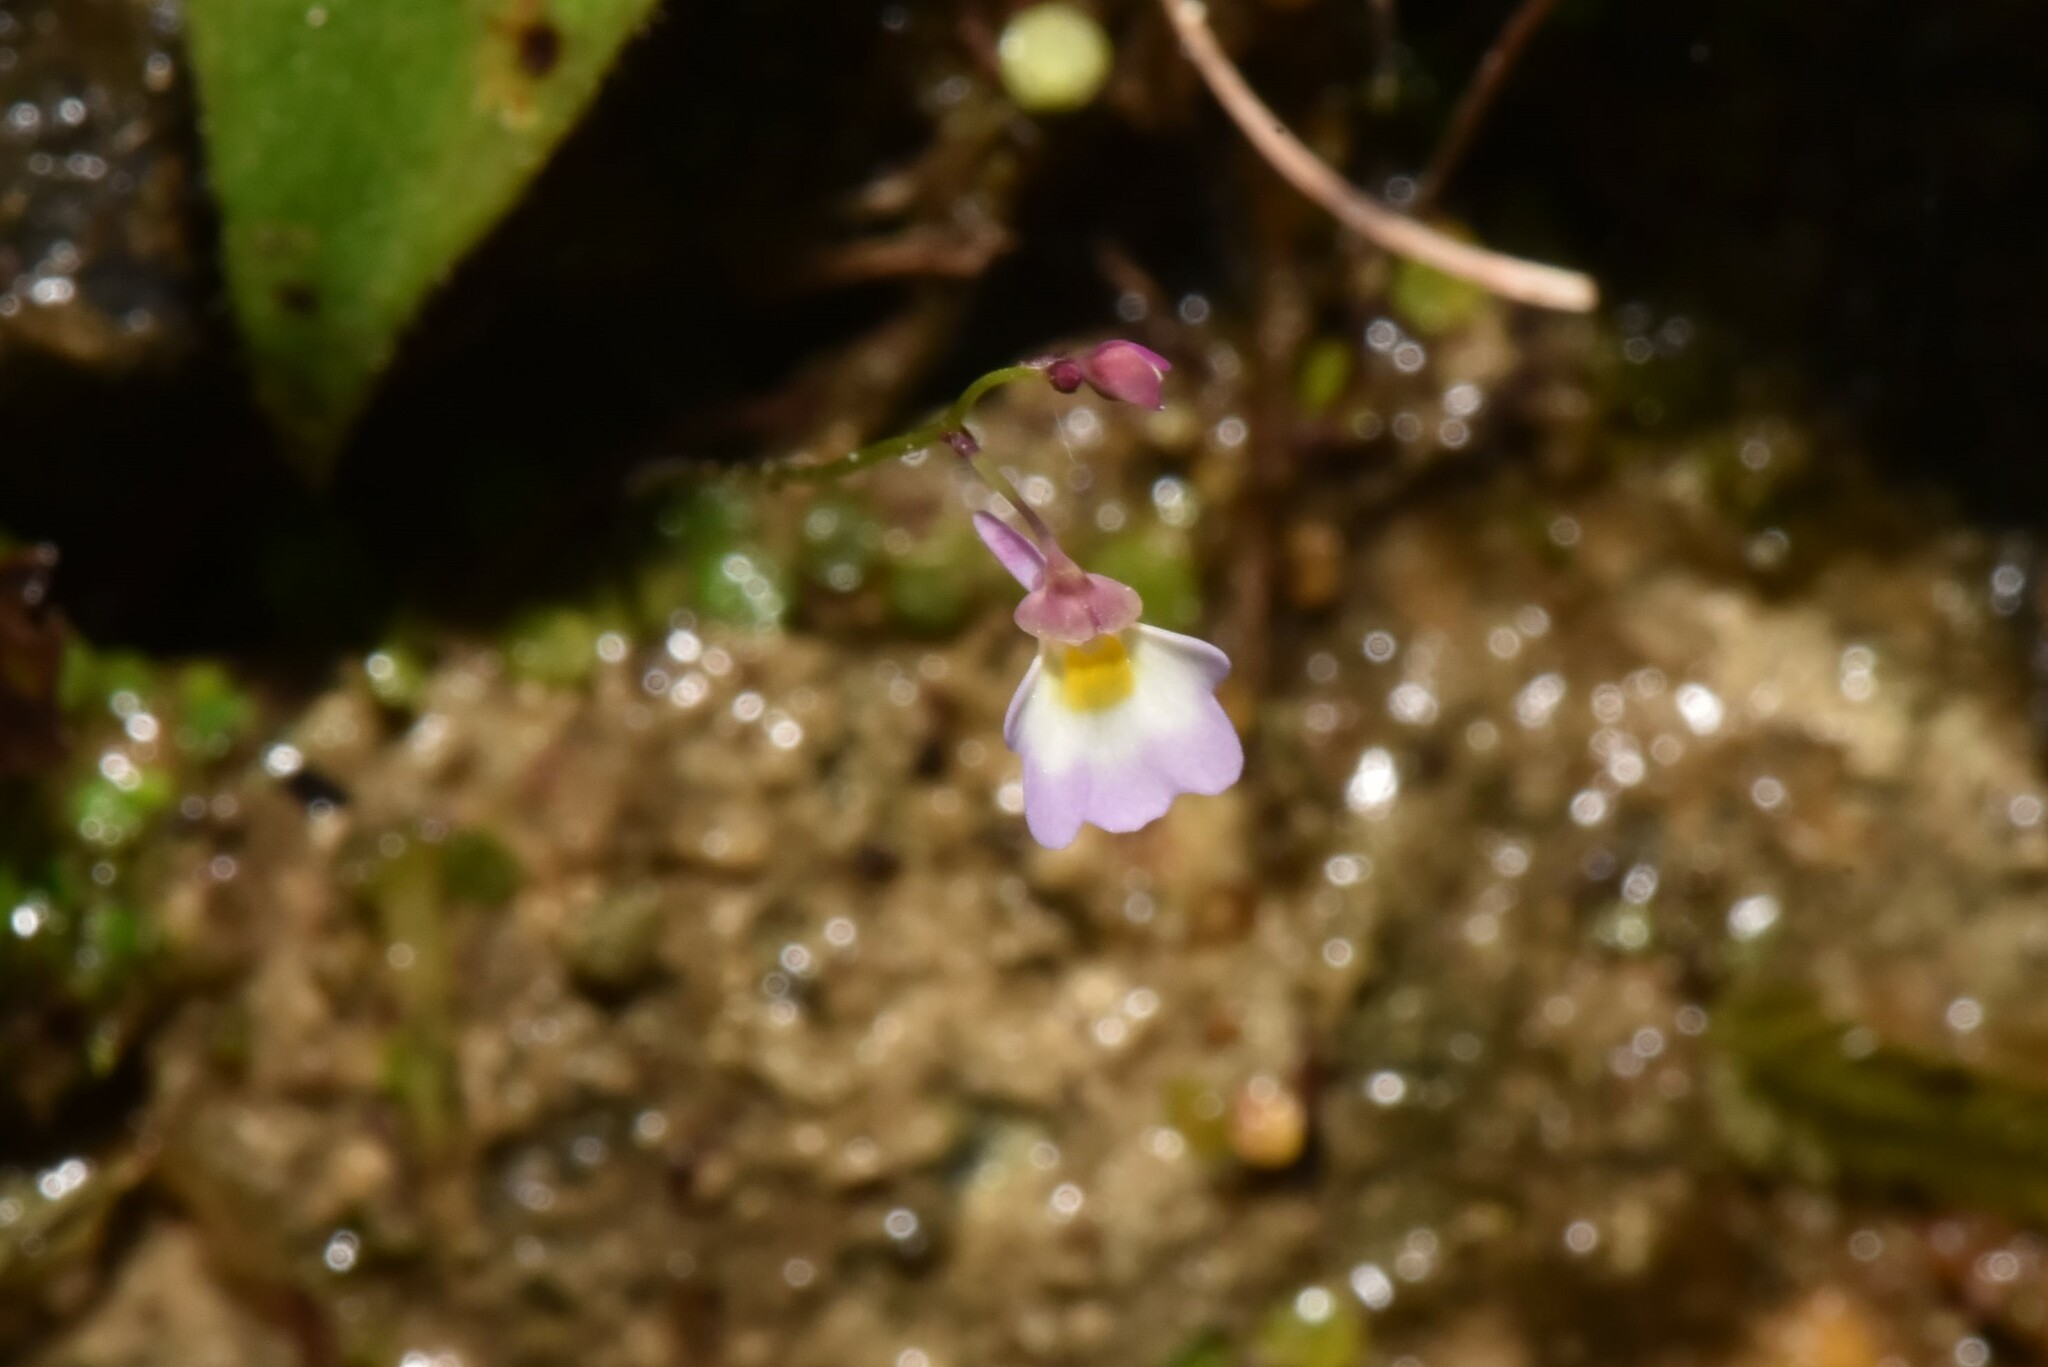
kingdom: Plantae
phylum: Tracheophyta
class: Magnoliopsida
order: Lamiales
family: Lentibulariaceae
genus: Utricularia
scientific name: Utricularia striatula
